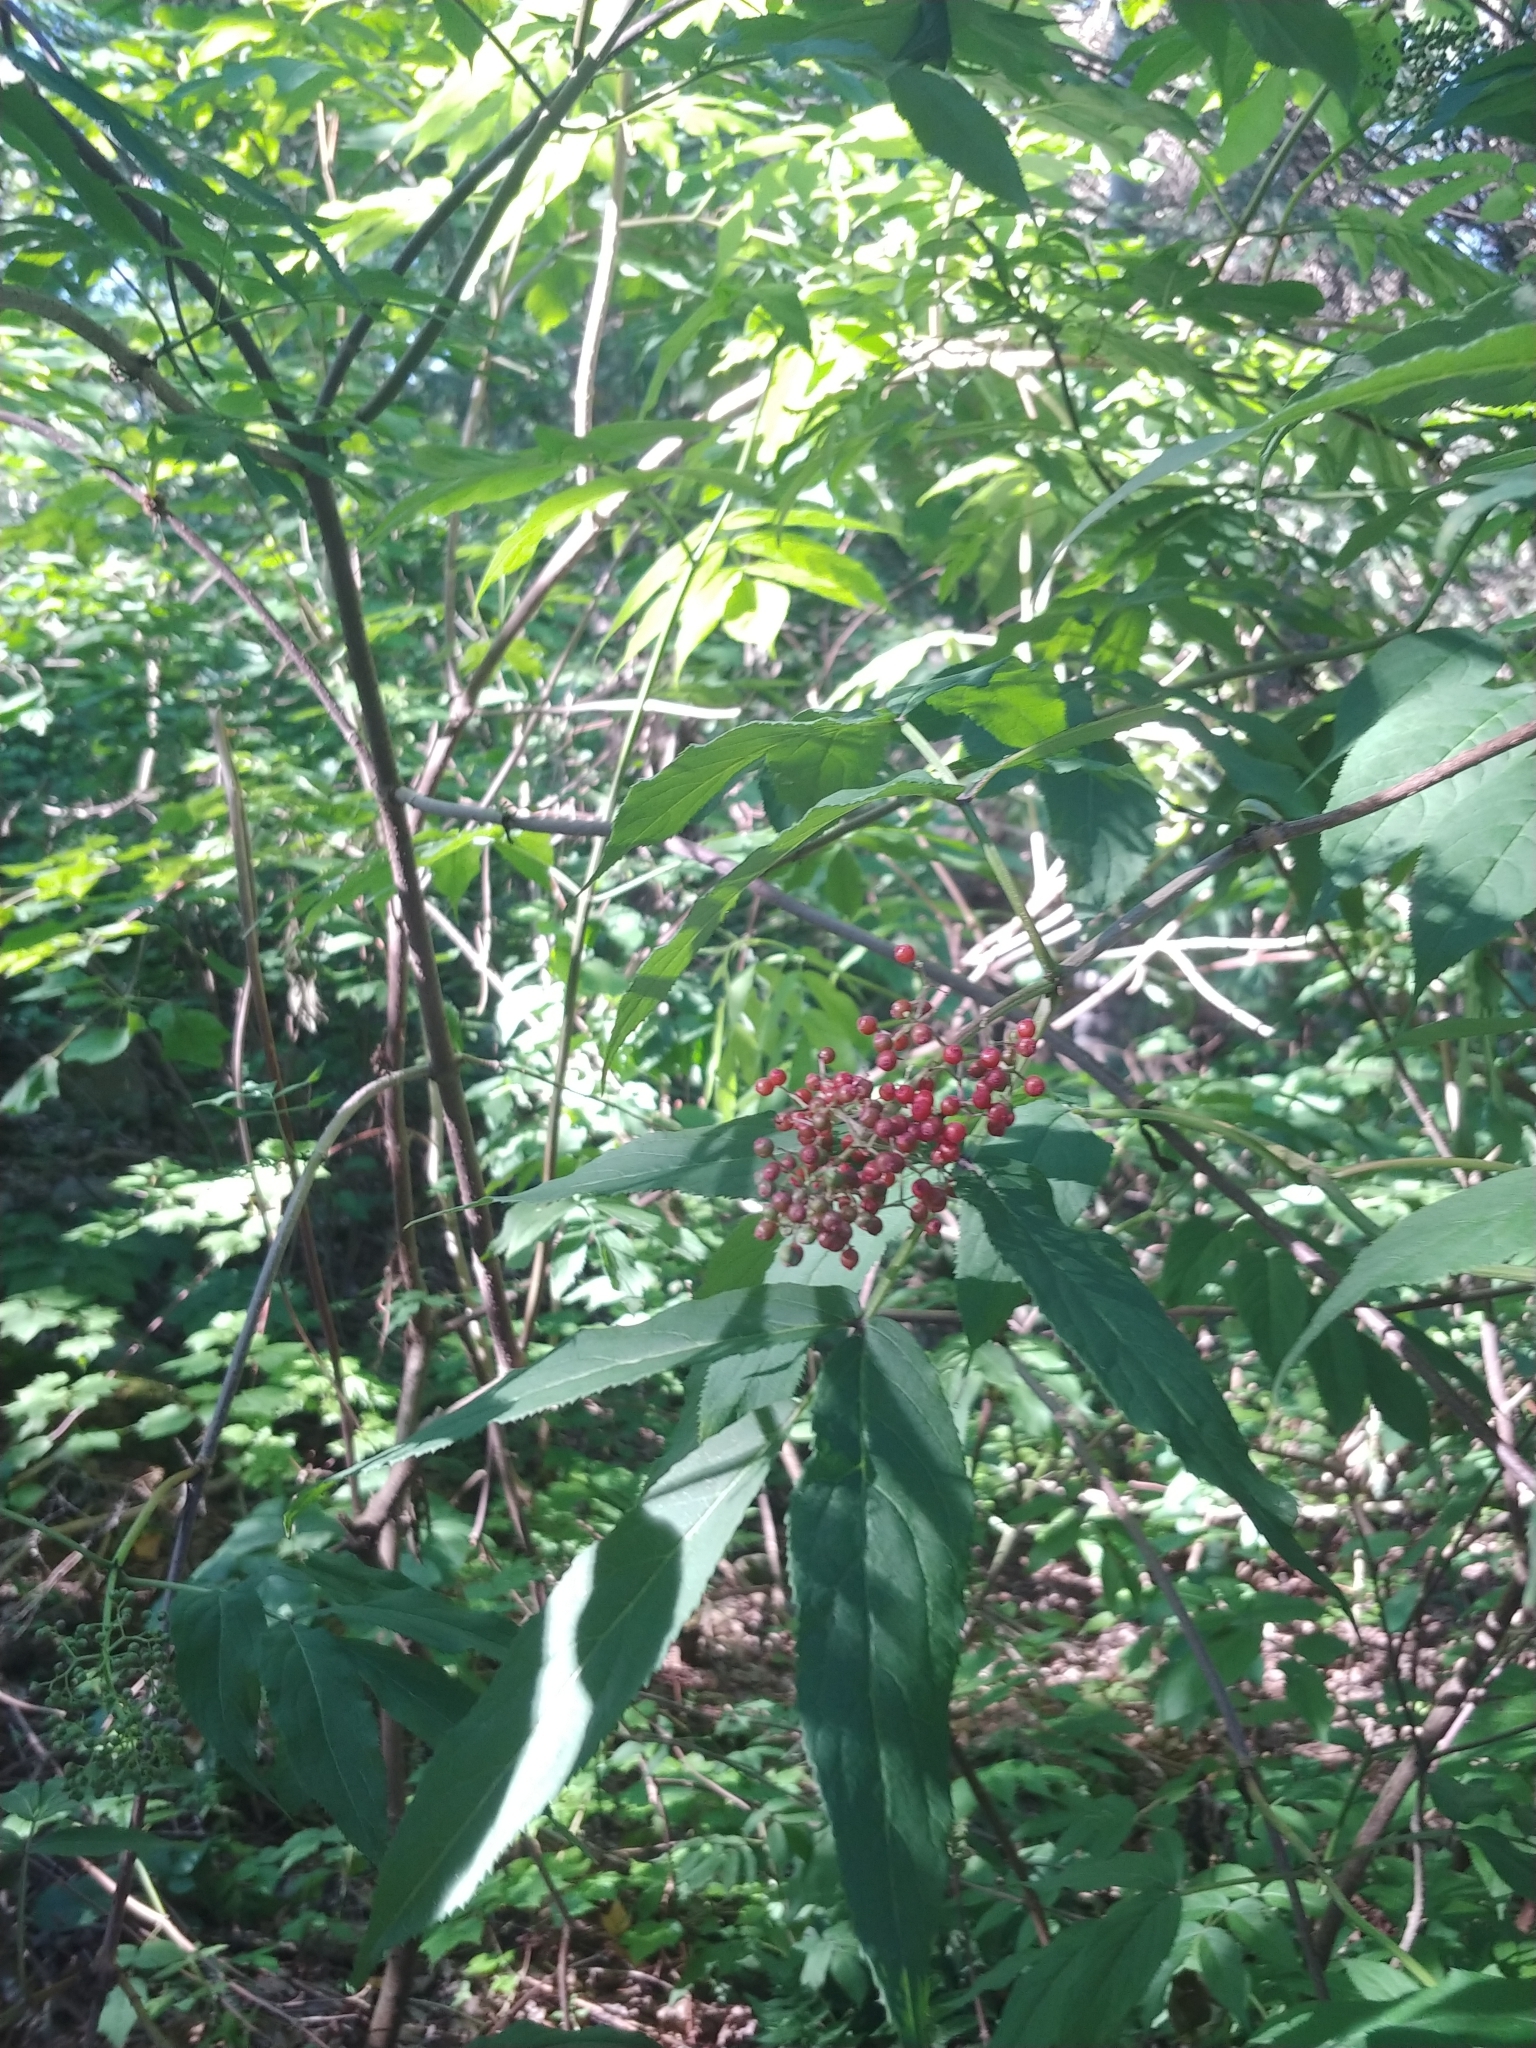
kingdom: Plantae
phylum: Tracheophyta
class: Magnoliopsida
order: Dipsacales
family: Viburnaceae
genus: Sambucus
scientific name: Sambucus racemosa
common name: Red-berried elder
